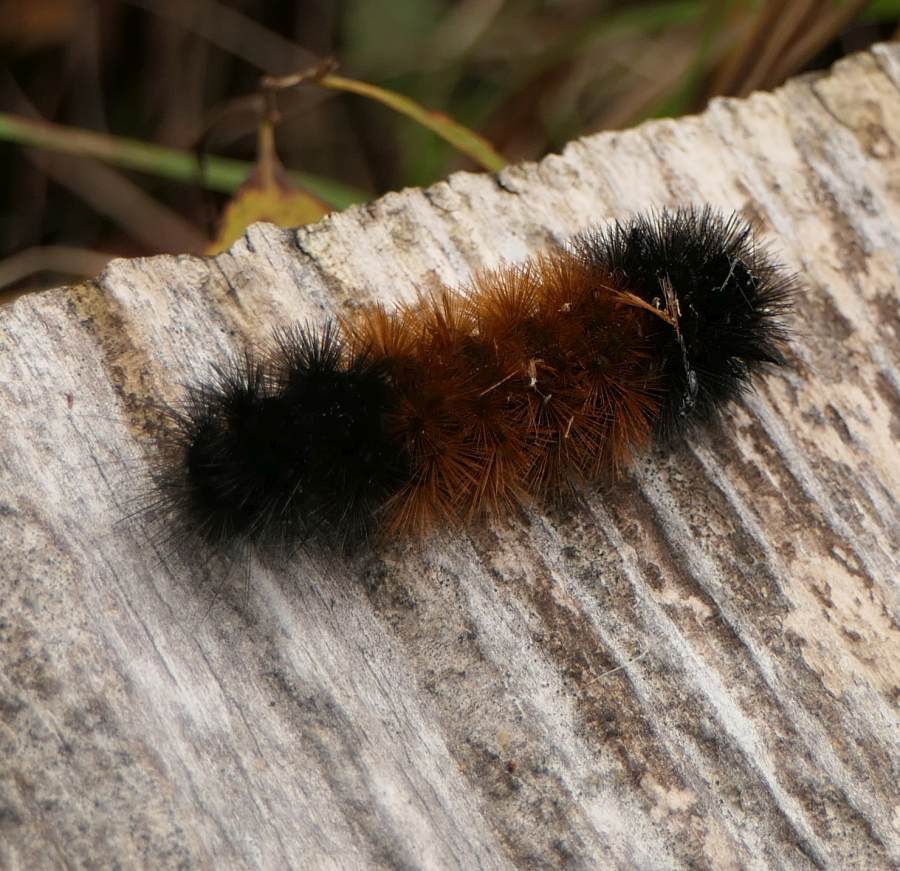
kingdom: Animalia
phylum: Arthropoda
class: Insecta
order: Lepidoptera
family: Erebidae
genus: Pyrrharctia
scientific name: Pyrrharctia isabella
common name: Isabella tiger moth
